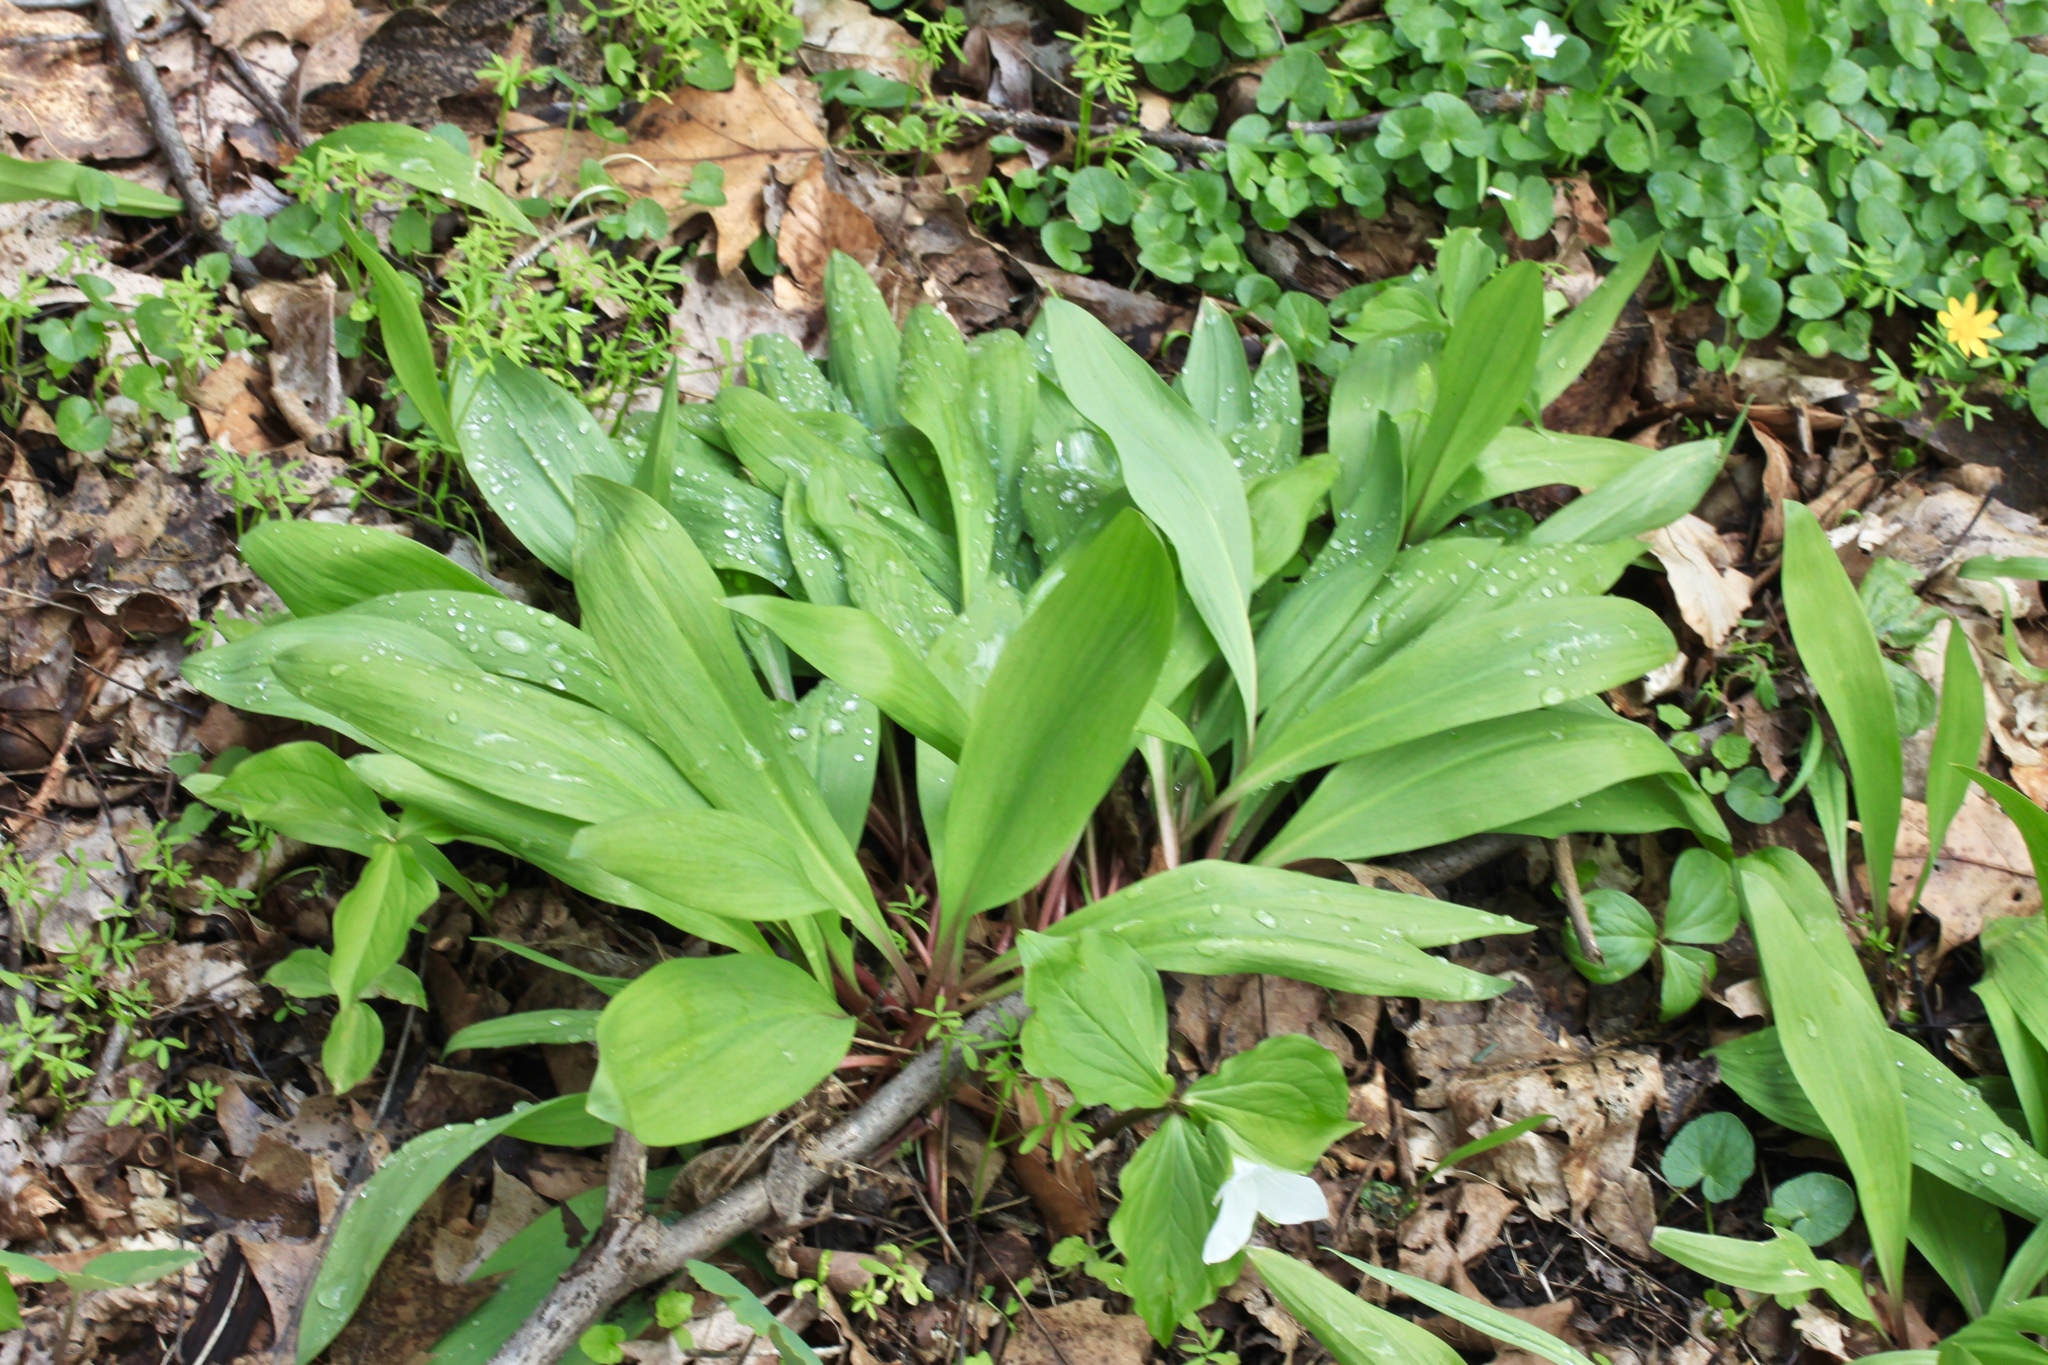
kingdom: Plantae
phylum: Tracheophyta
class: Liliopsida
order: Asparagales
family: Amaryllidaceae
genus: Allium
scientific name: Allium tricoccum
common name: Ramp
